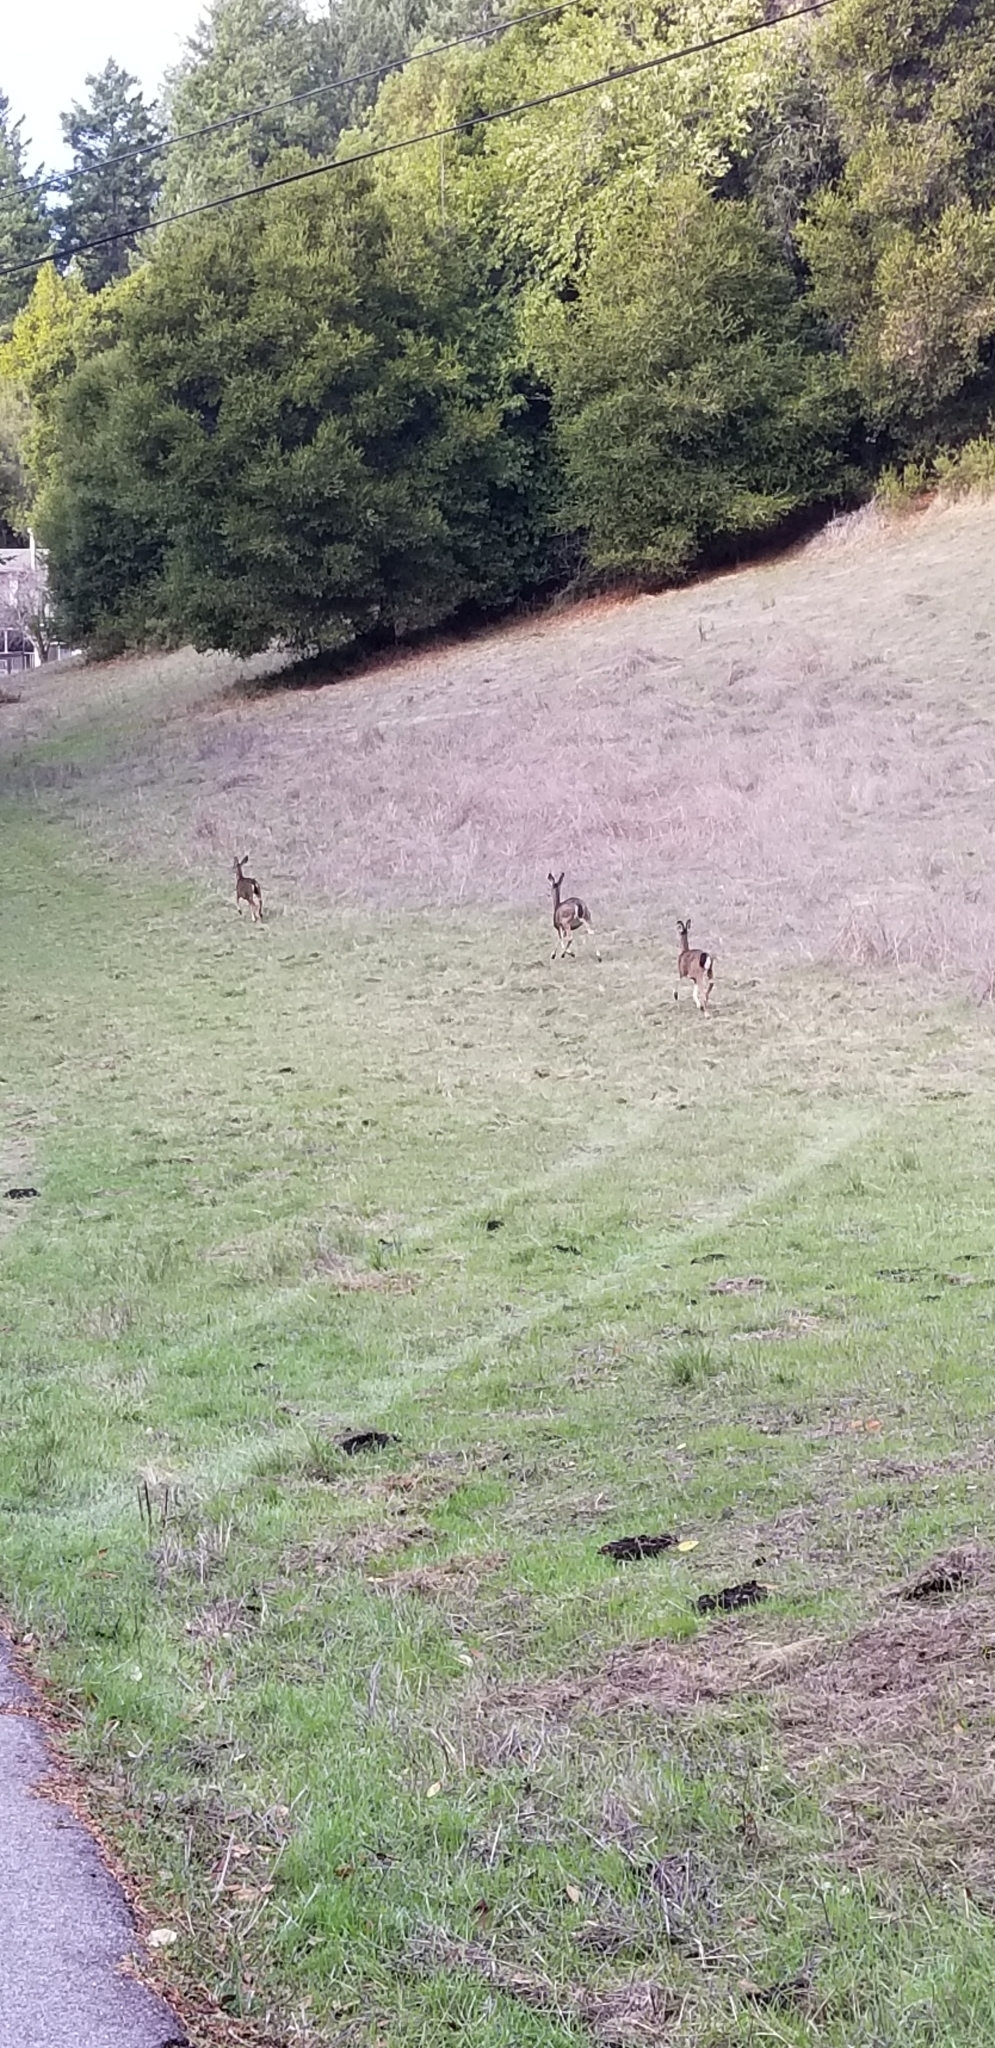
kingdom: Animalia
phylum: Chordata
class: Mammalia
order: Artiodactyla
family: Cervidae
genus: Odocoileus
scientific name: Odocoileus hemionus
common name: Mule deer
